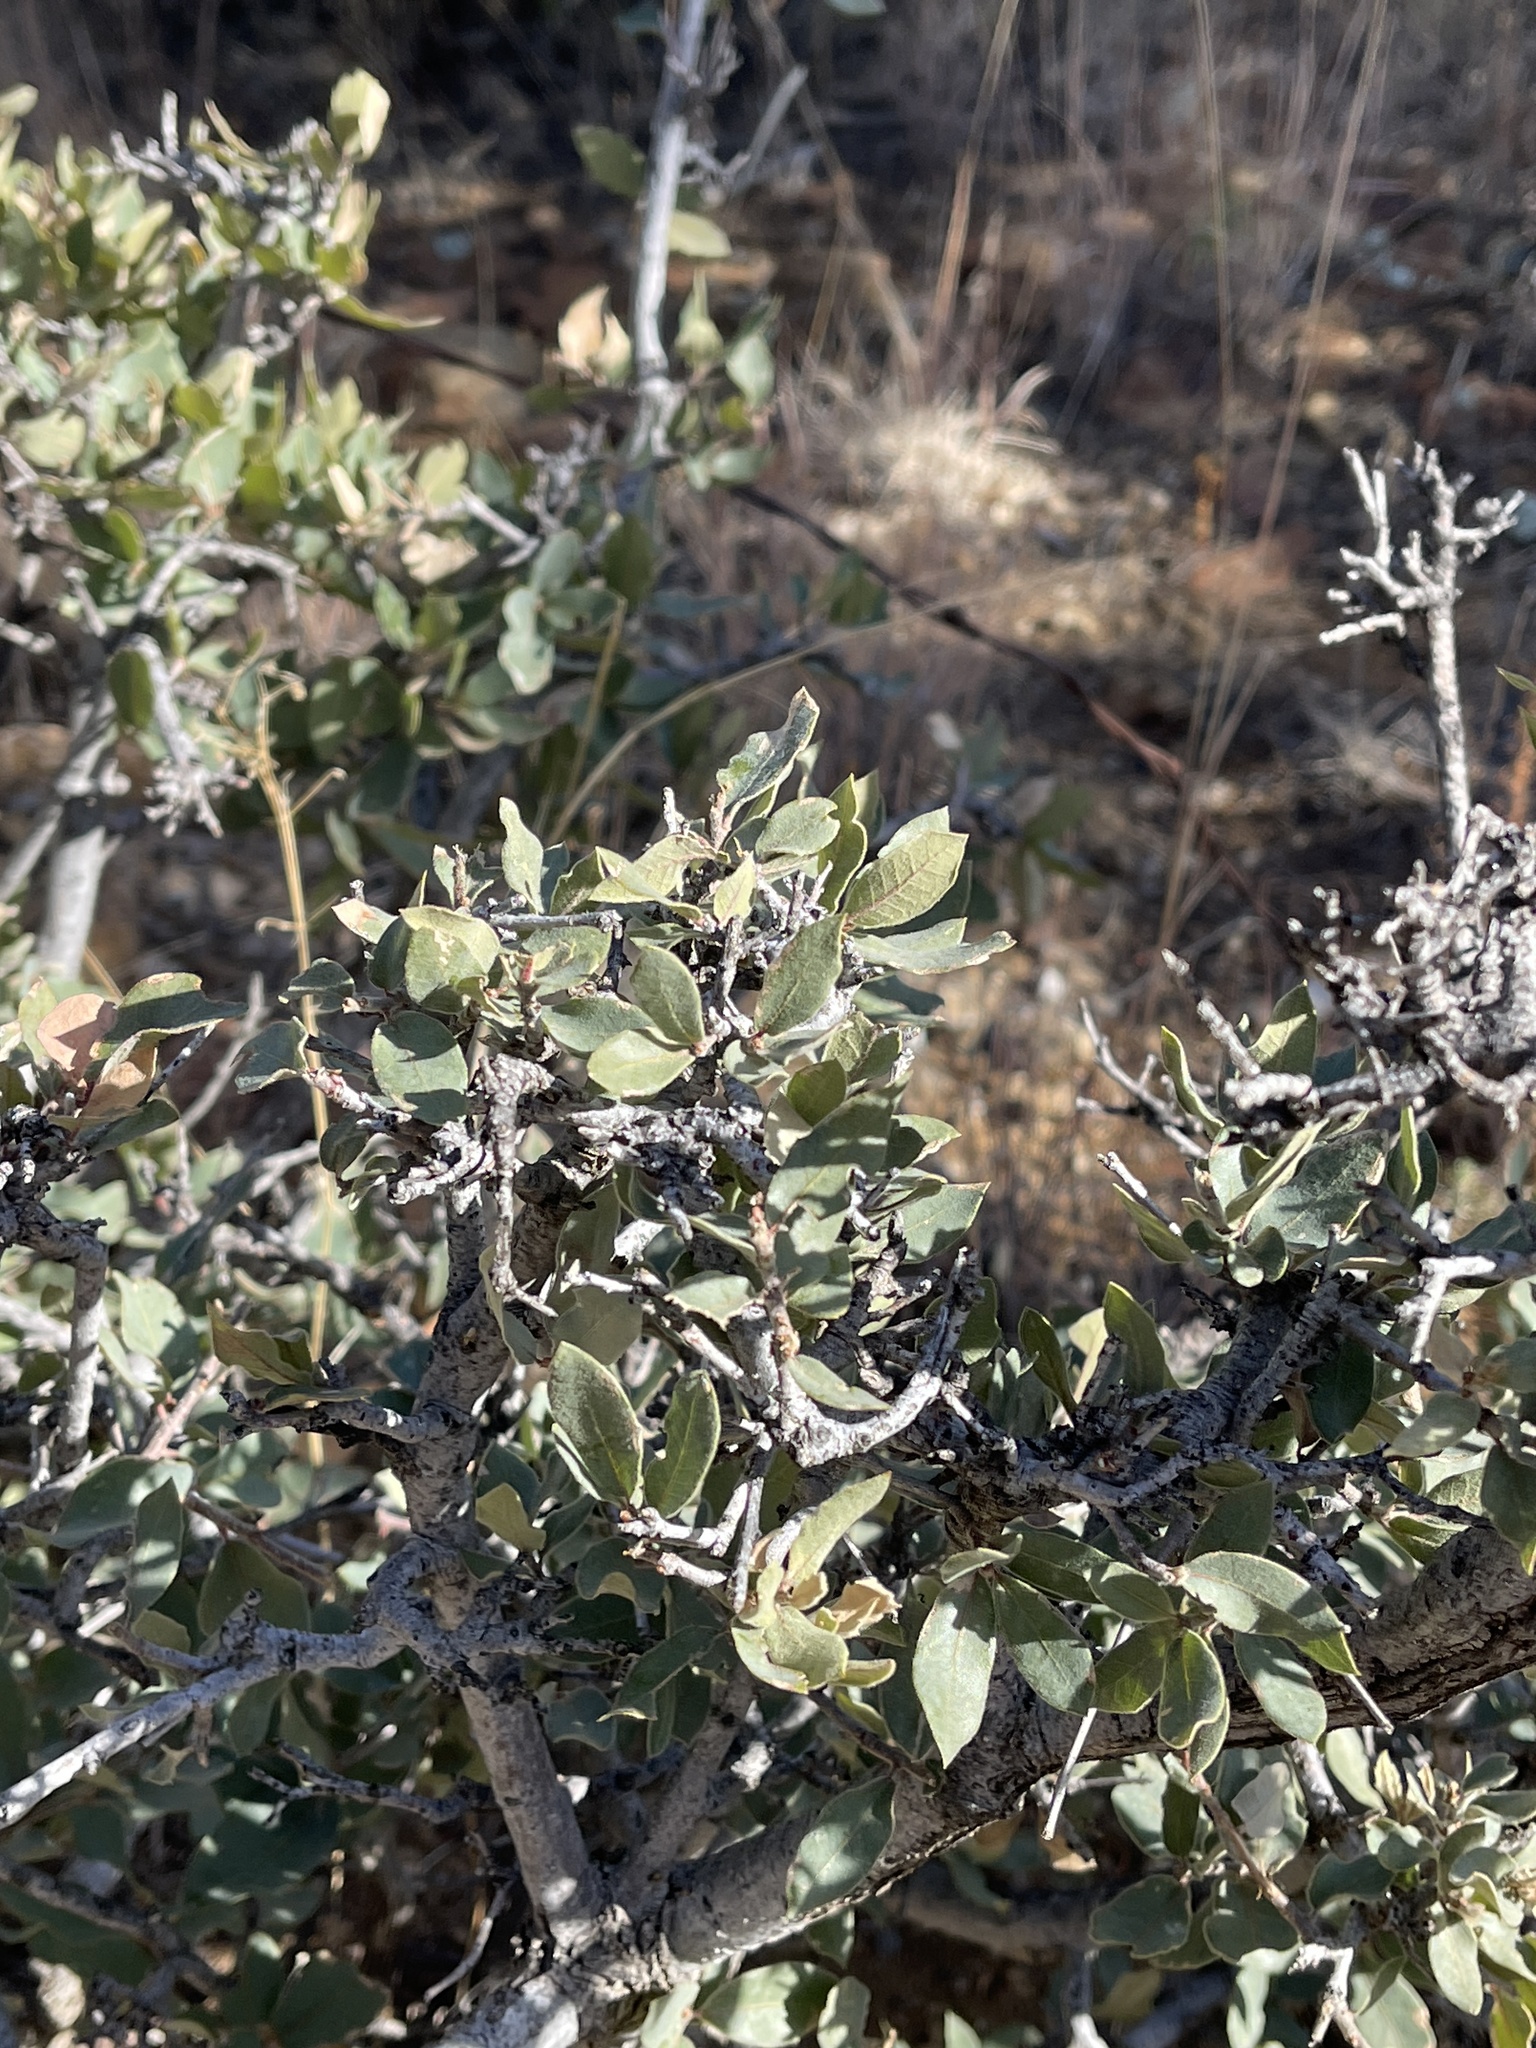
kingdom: Plantae
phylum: Tracheophyta
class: Magnoliopsida
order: Fagales
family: Fagaceae
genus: Quercus
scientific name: Quercus turbinella
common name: Sonoran scrub oak
